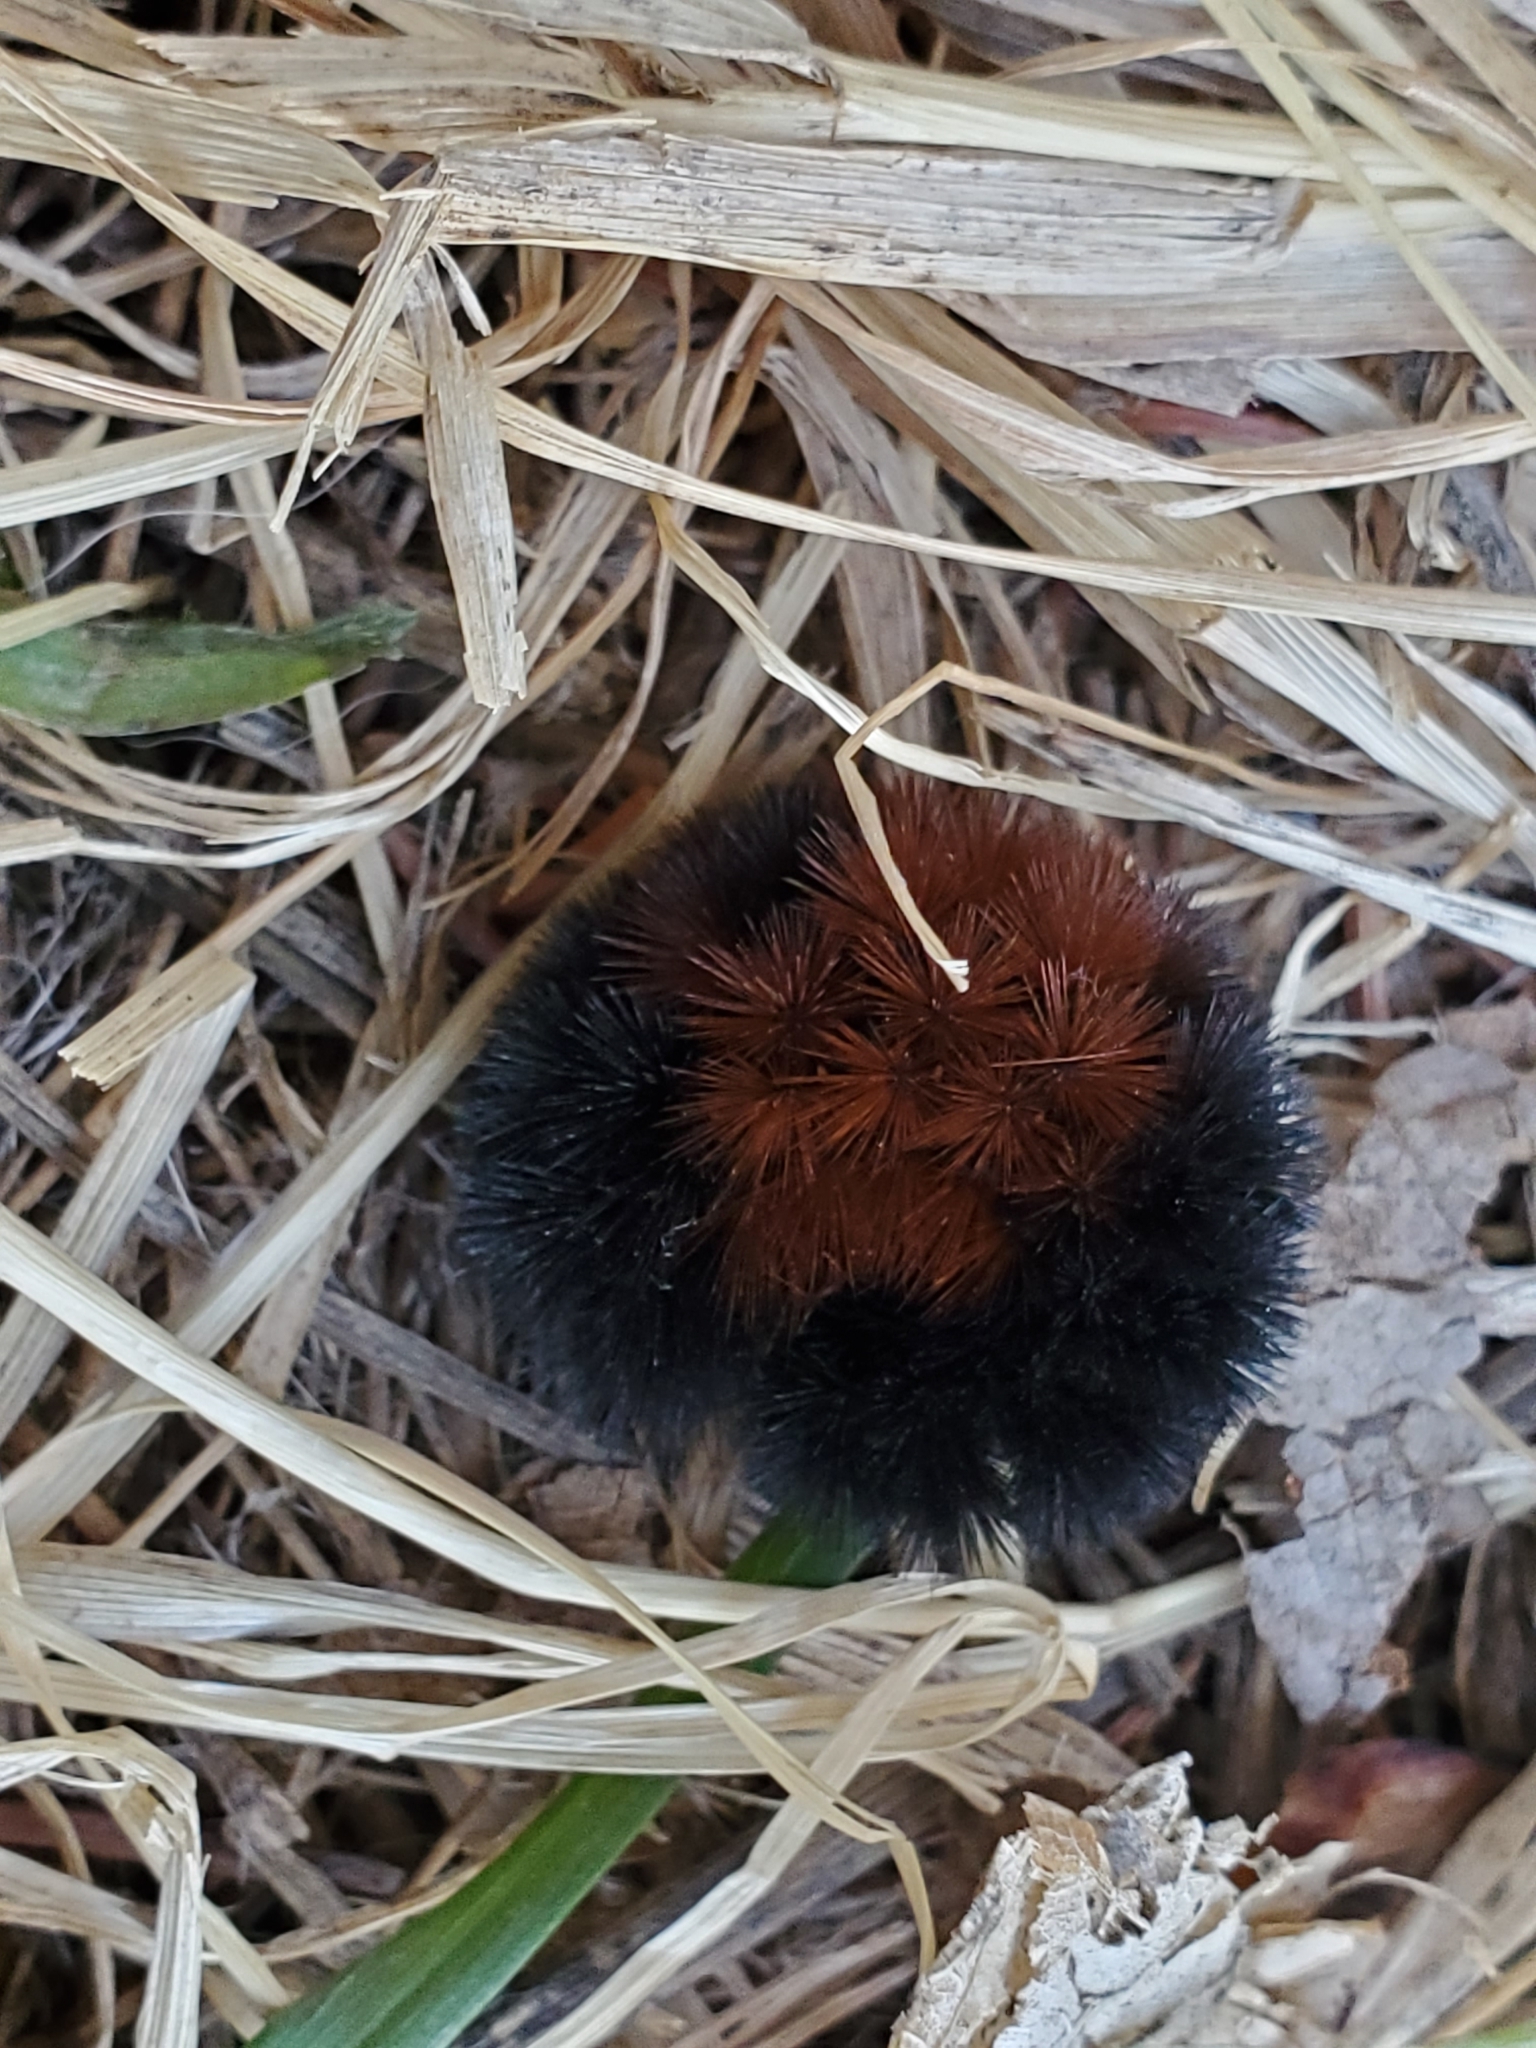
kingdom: Animalia
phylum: Arthropoda
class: Insecta
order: Lepidoptera
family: Erebidae
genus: Pyrrharctia
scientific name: Pyrrharctia isabella
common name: Isabella tiger moth
